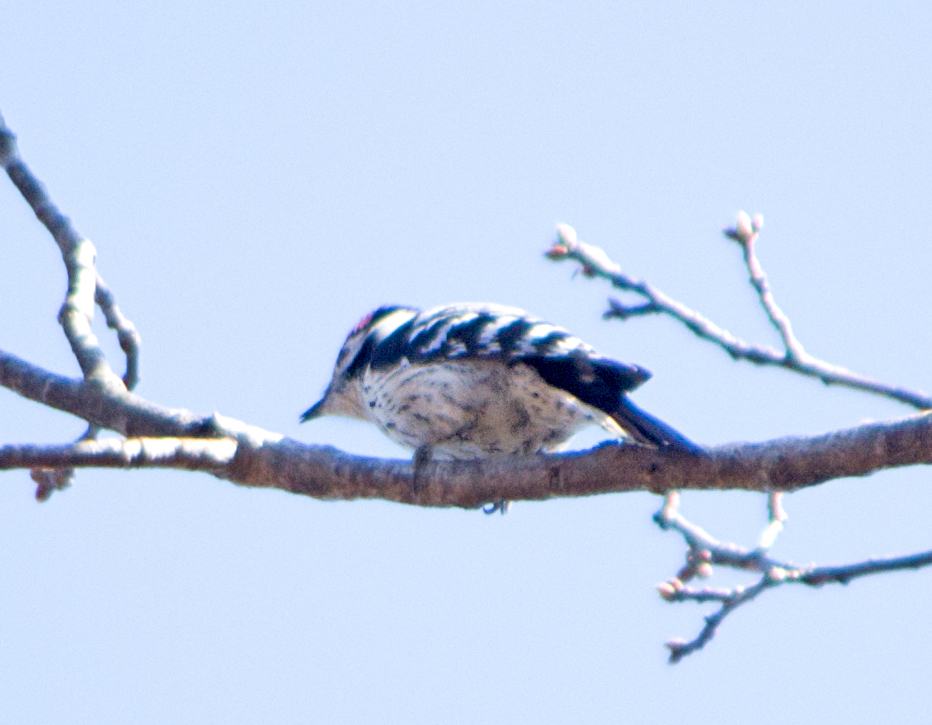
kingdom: Animalia
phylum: Chordata
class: Aves
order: Piciformes
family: Picidae
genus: Dryobates
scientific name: Dryobates minor
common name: Lesser spotted woodpecker
